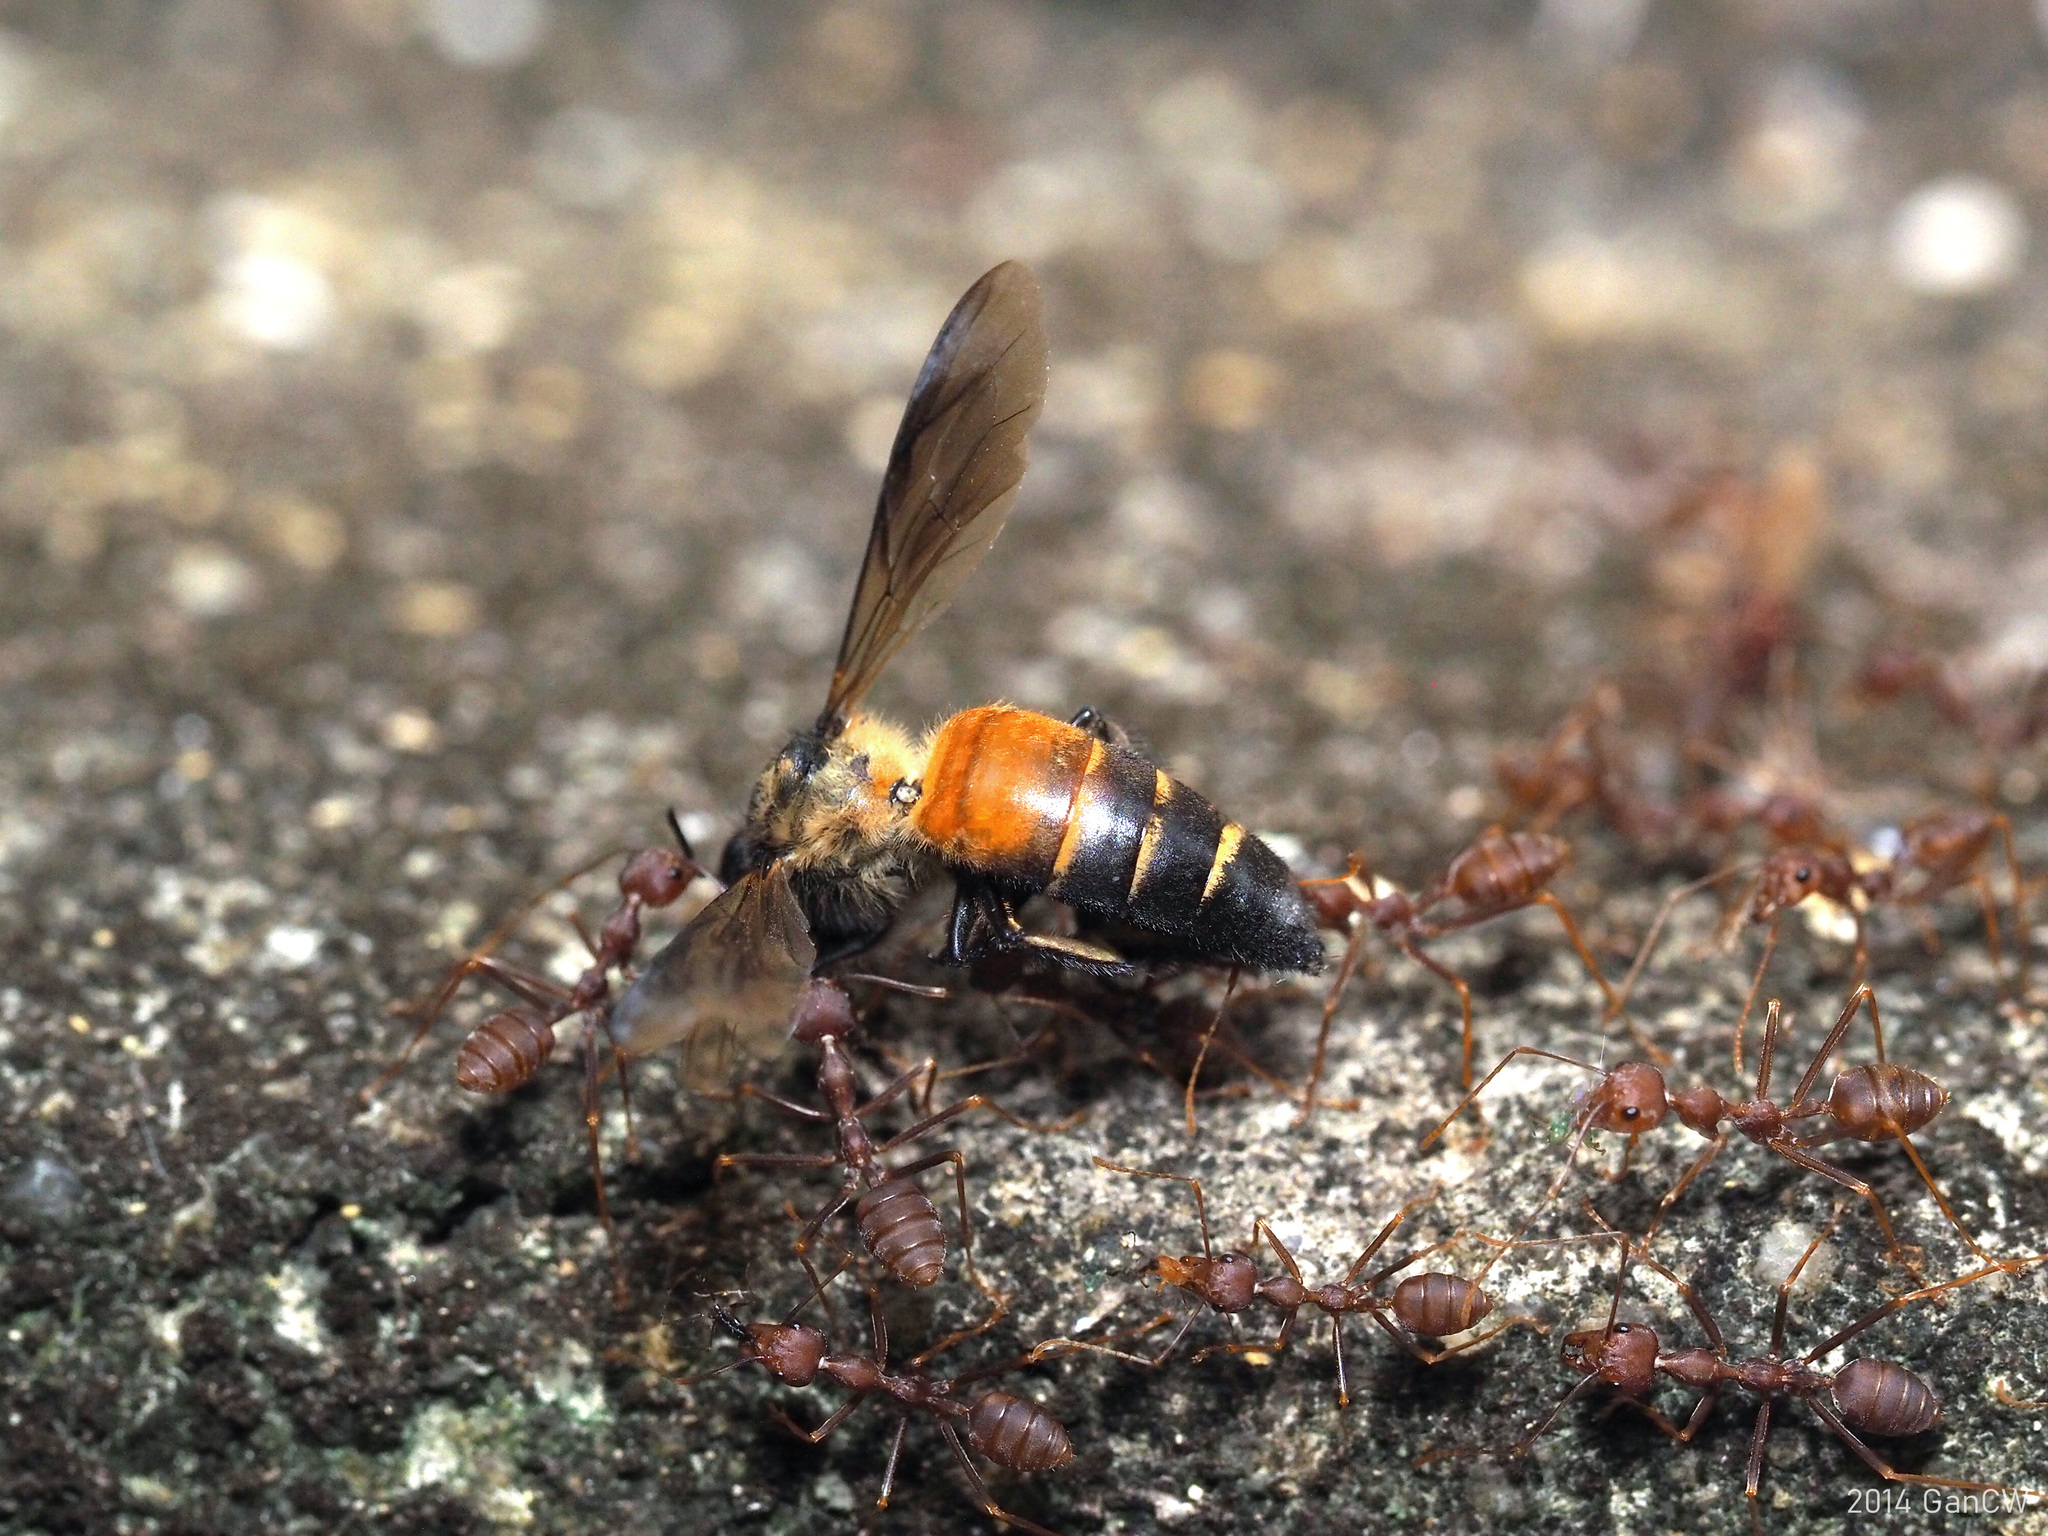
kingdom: Animalia
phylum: Arthropoda
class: Insecta
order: Hymenoptera
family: Apidae
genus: Apis
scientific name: Apis dorsata
